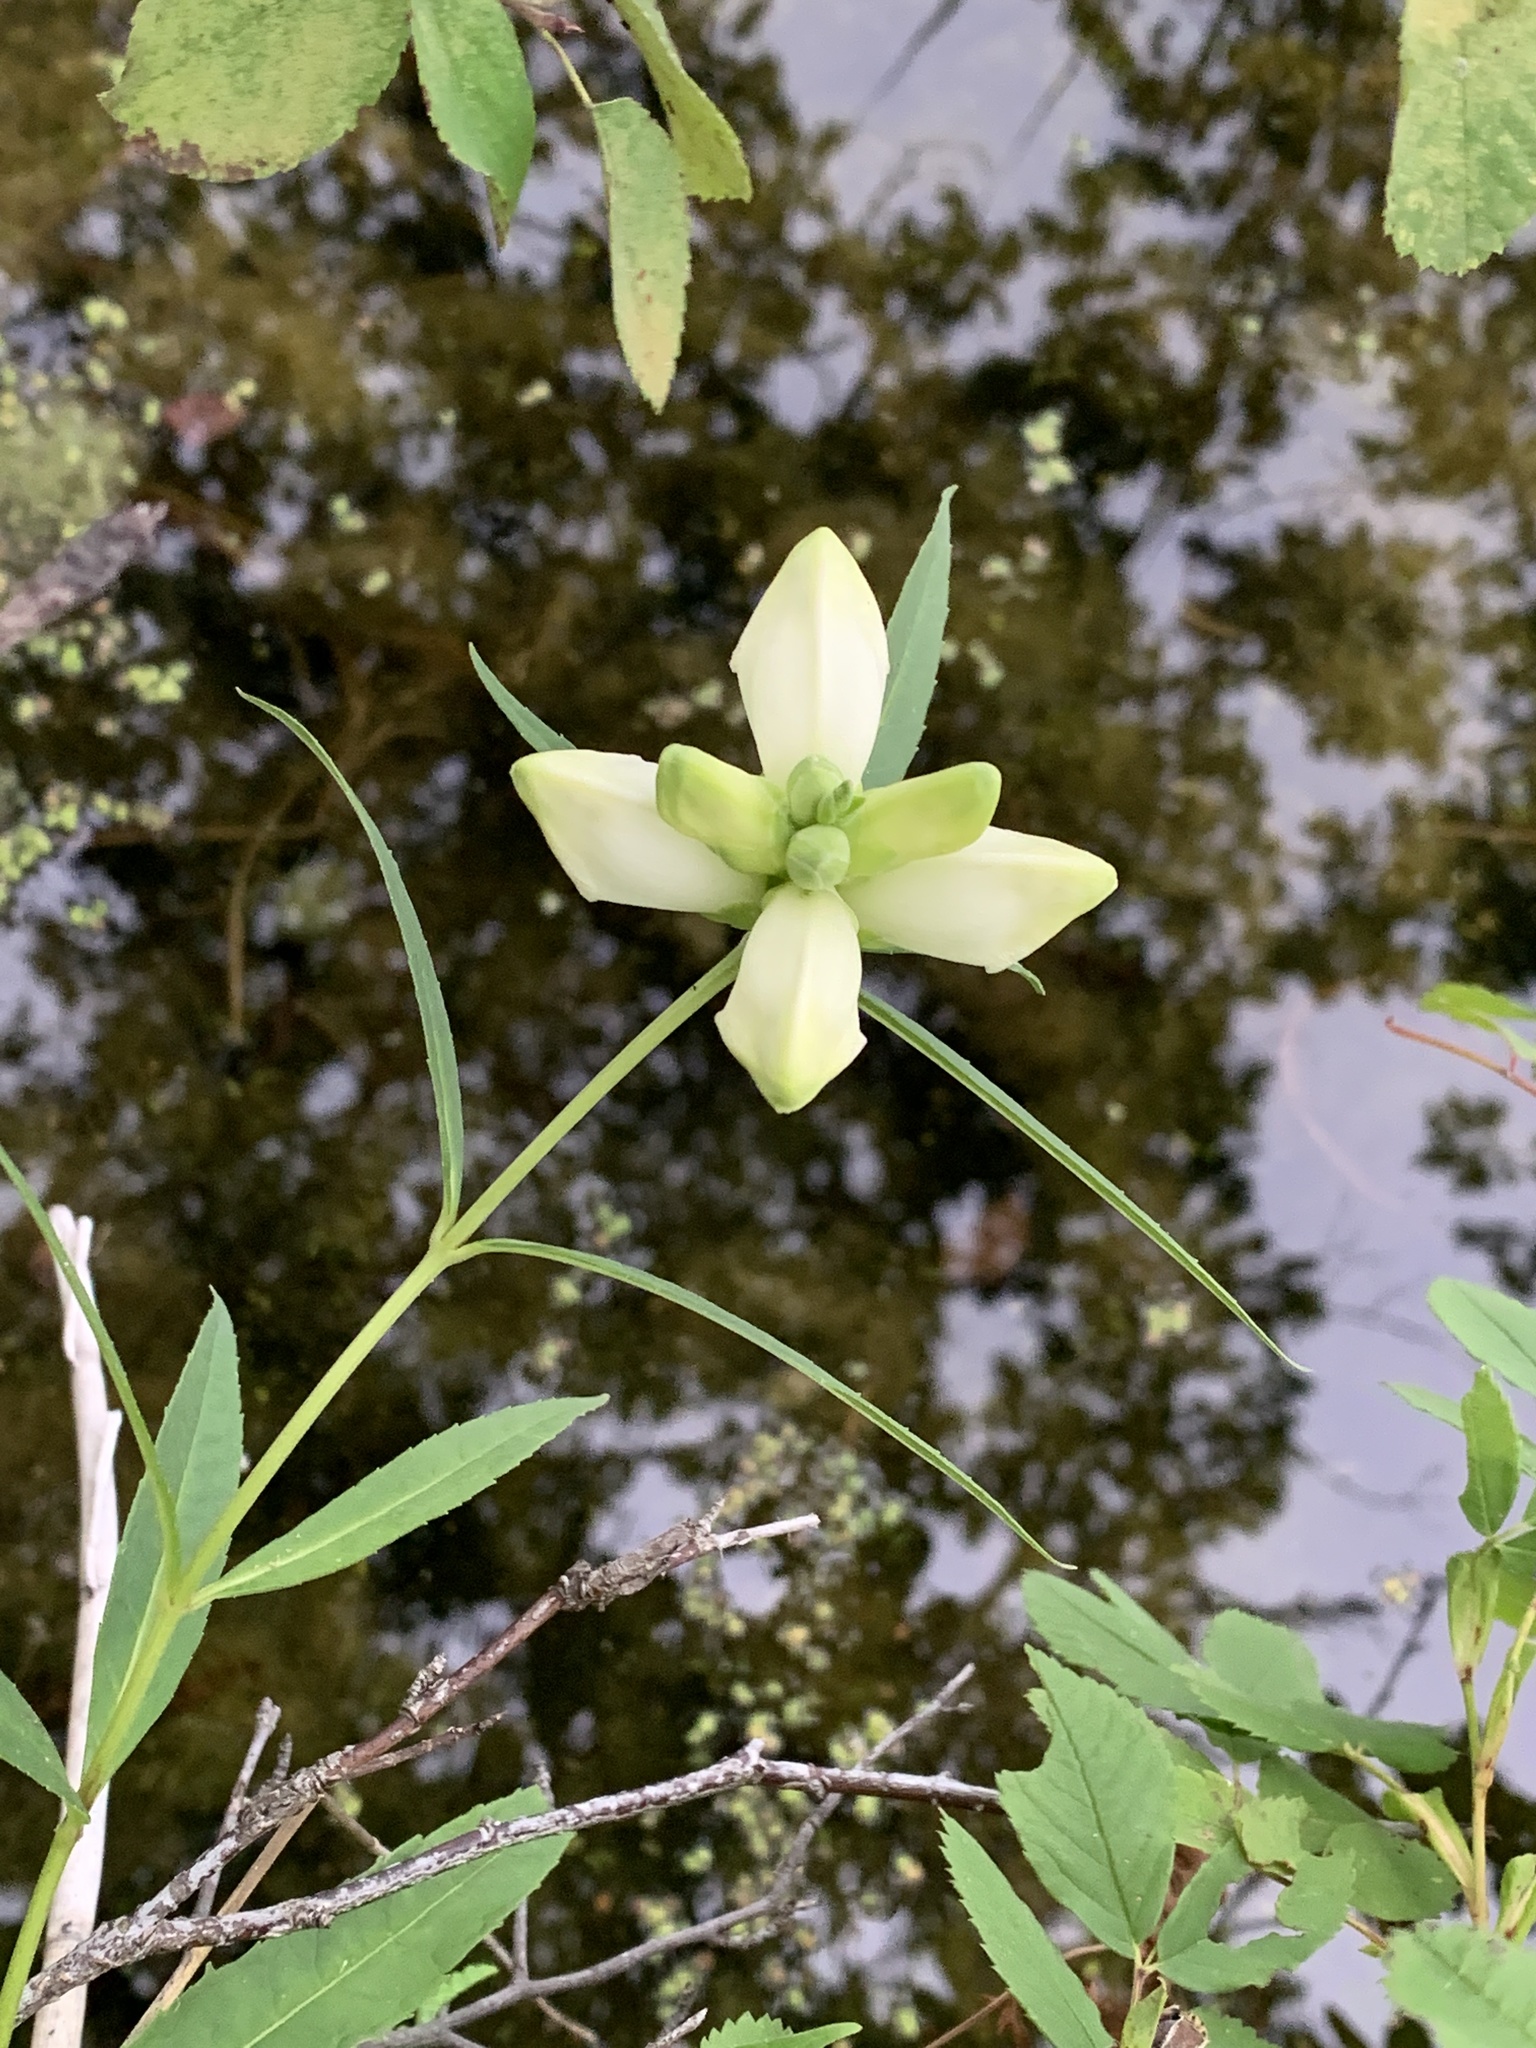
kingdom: Plantae
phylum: Tracheophyta
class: Magnoliopsida
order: Lamiales
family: Plantaginaceae
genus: Chelone
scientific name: Chelone glabra
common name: Snakehead
